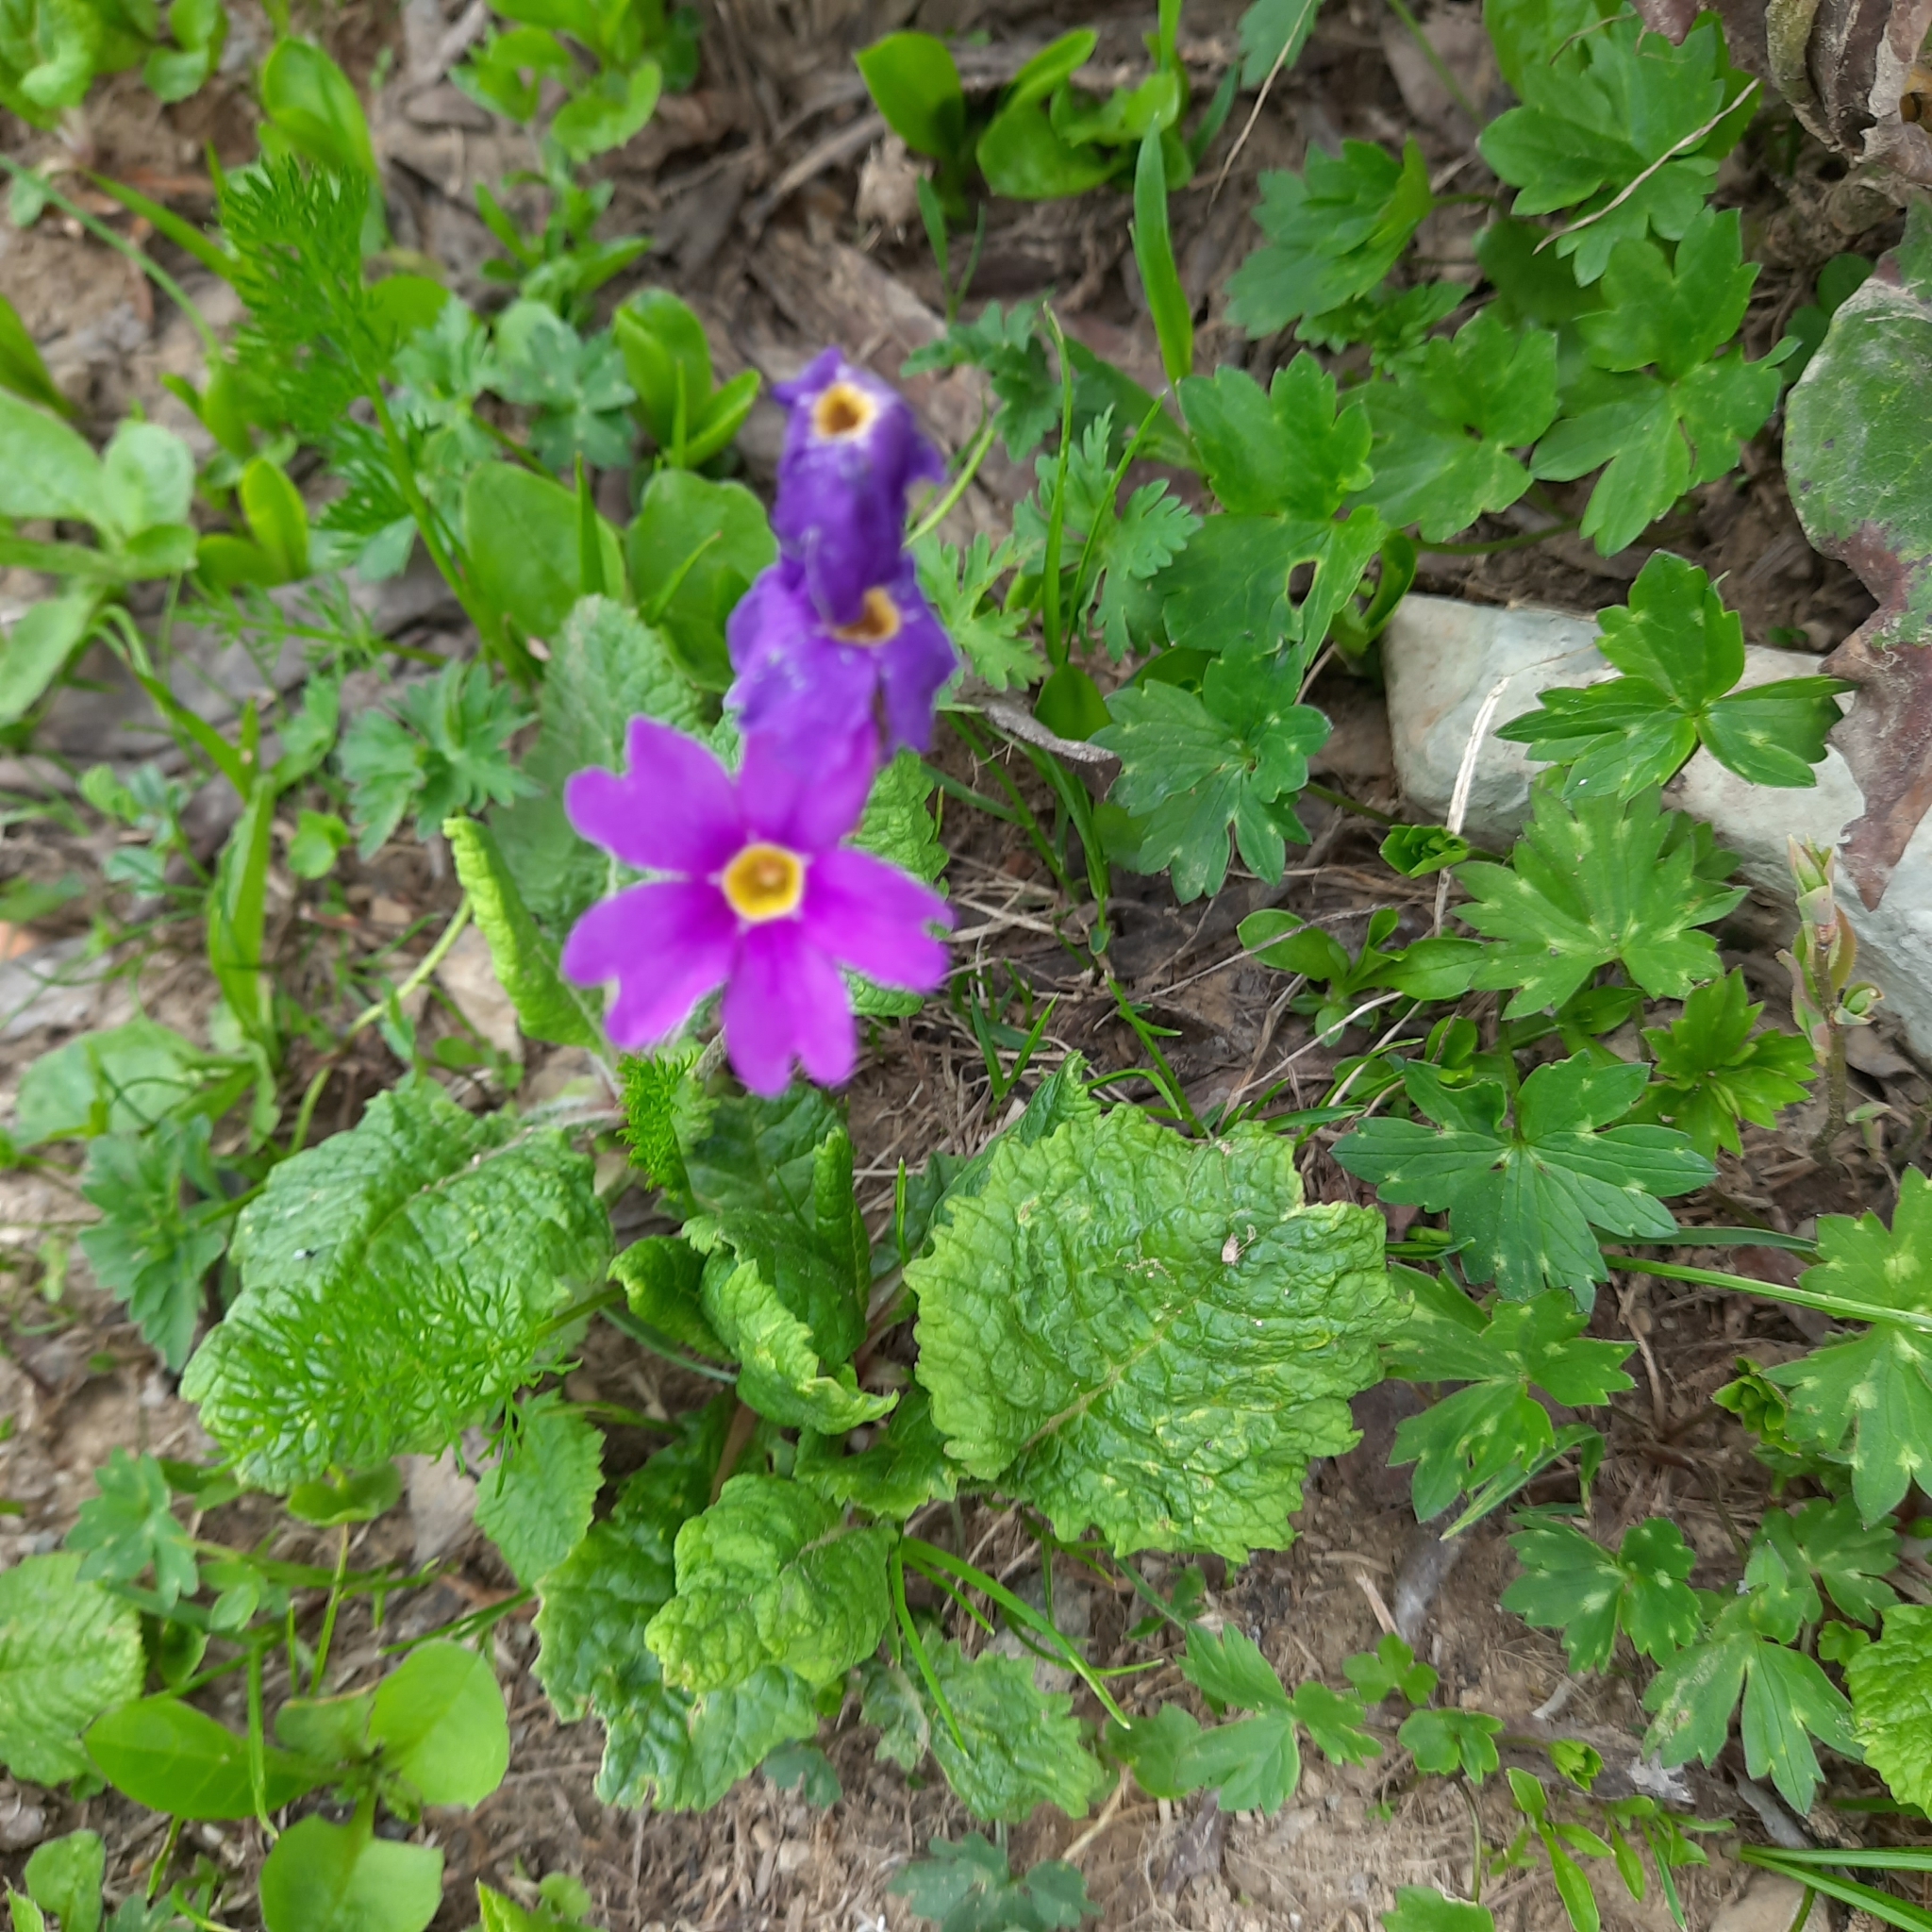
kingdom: Plantae
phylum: Tracheophyta
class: Magnoliopsida
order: Ericales
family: Primulaceae
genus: Primula
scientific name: Primula amoena
